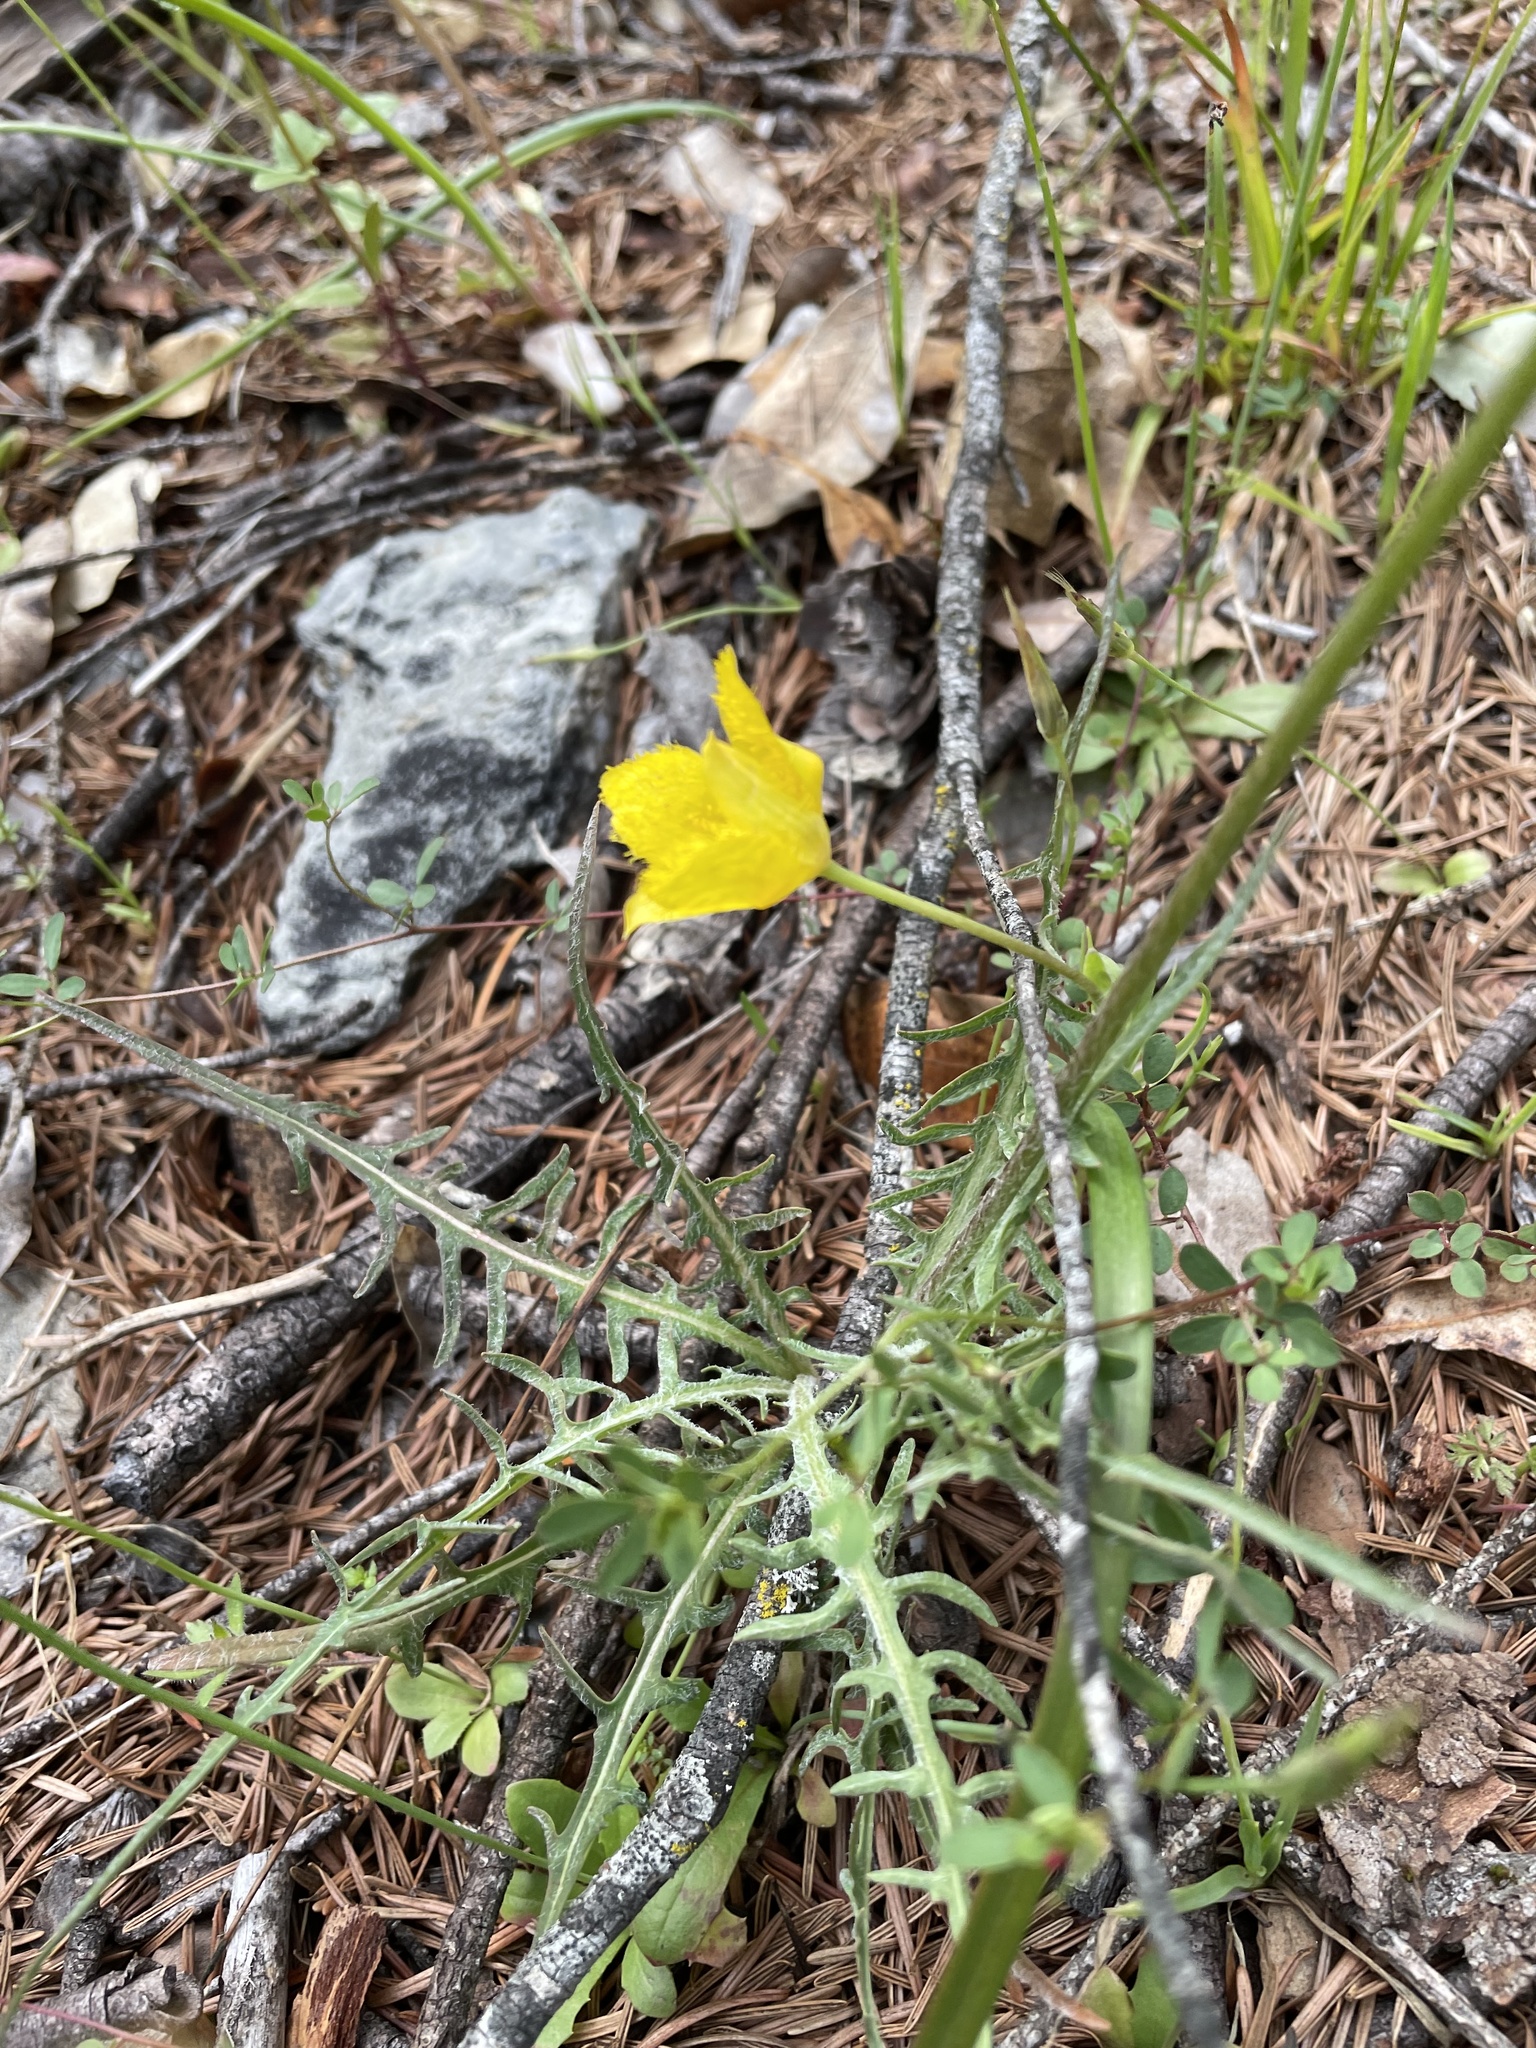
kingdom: Plantae
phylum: Tracheophyta
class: Liliopsida
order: Liliales
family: Liliaceae
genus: Calochortus
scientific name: Calochortus monophyllus
